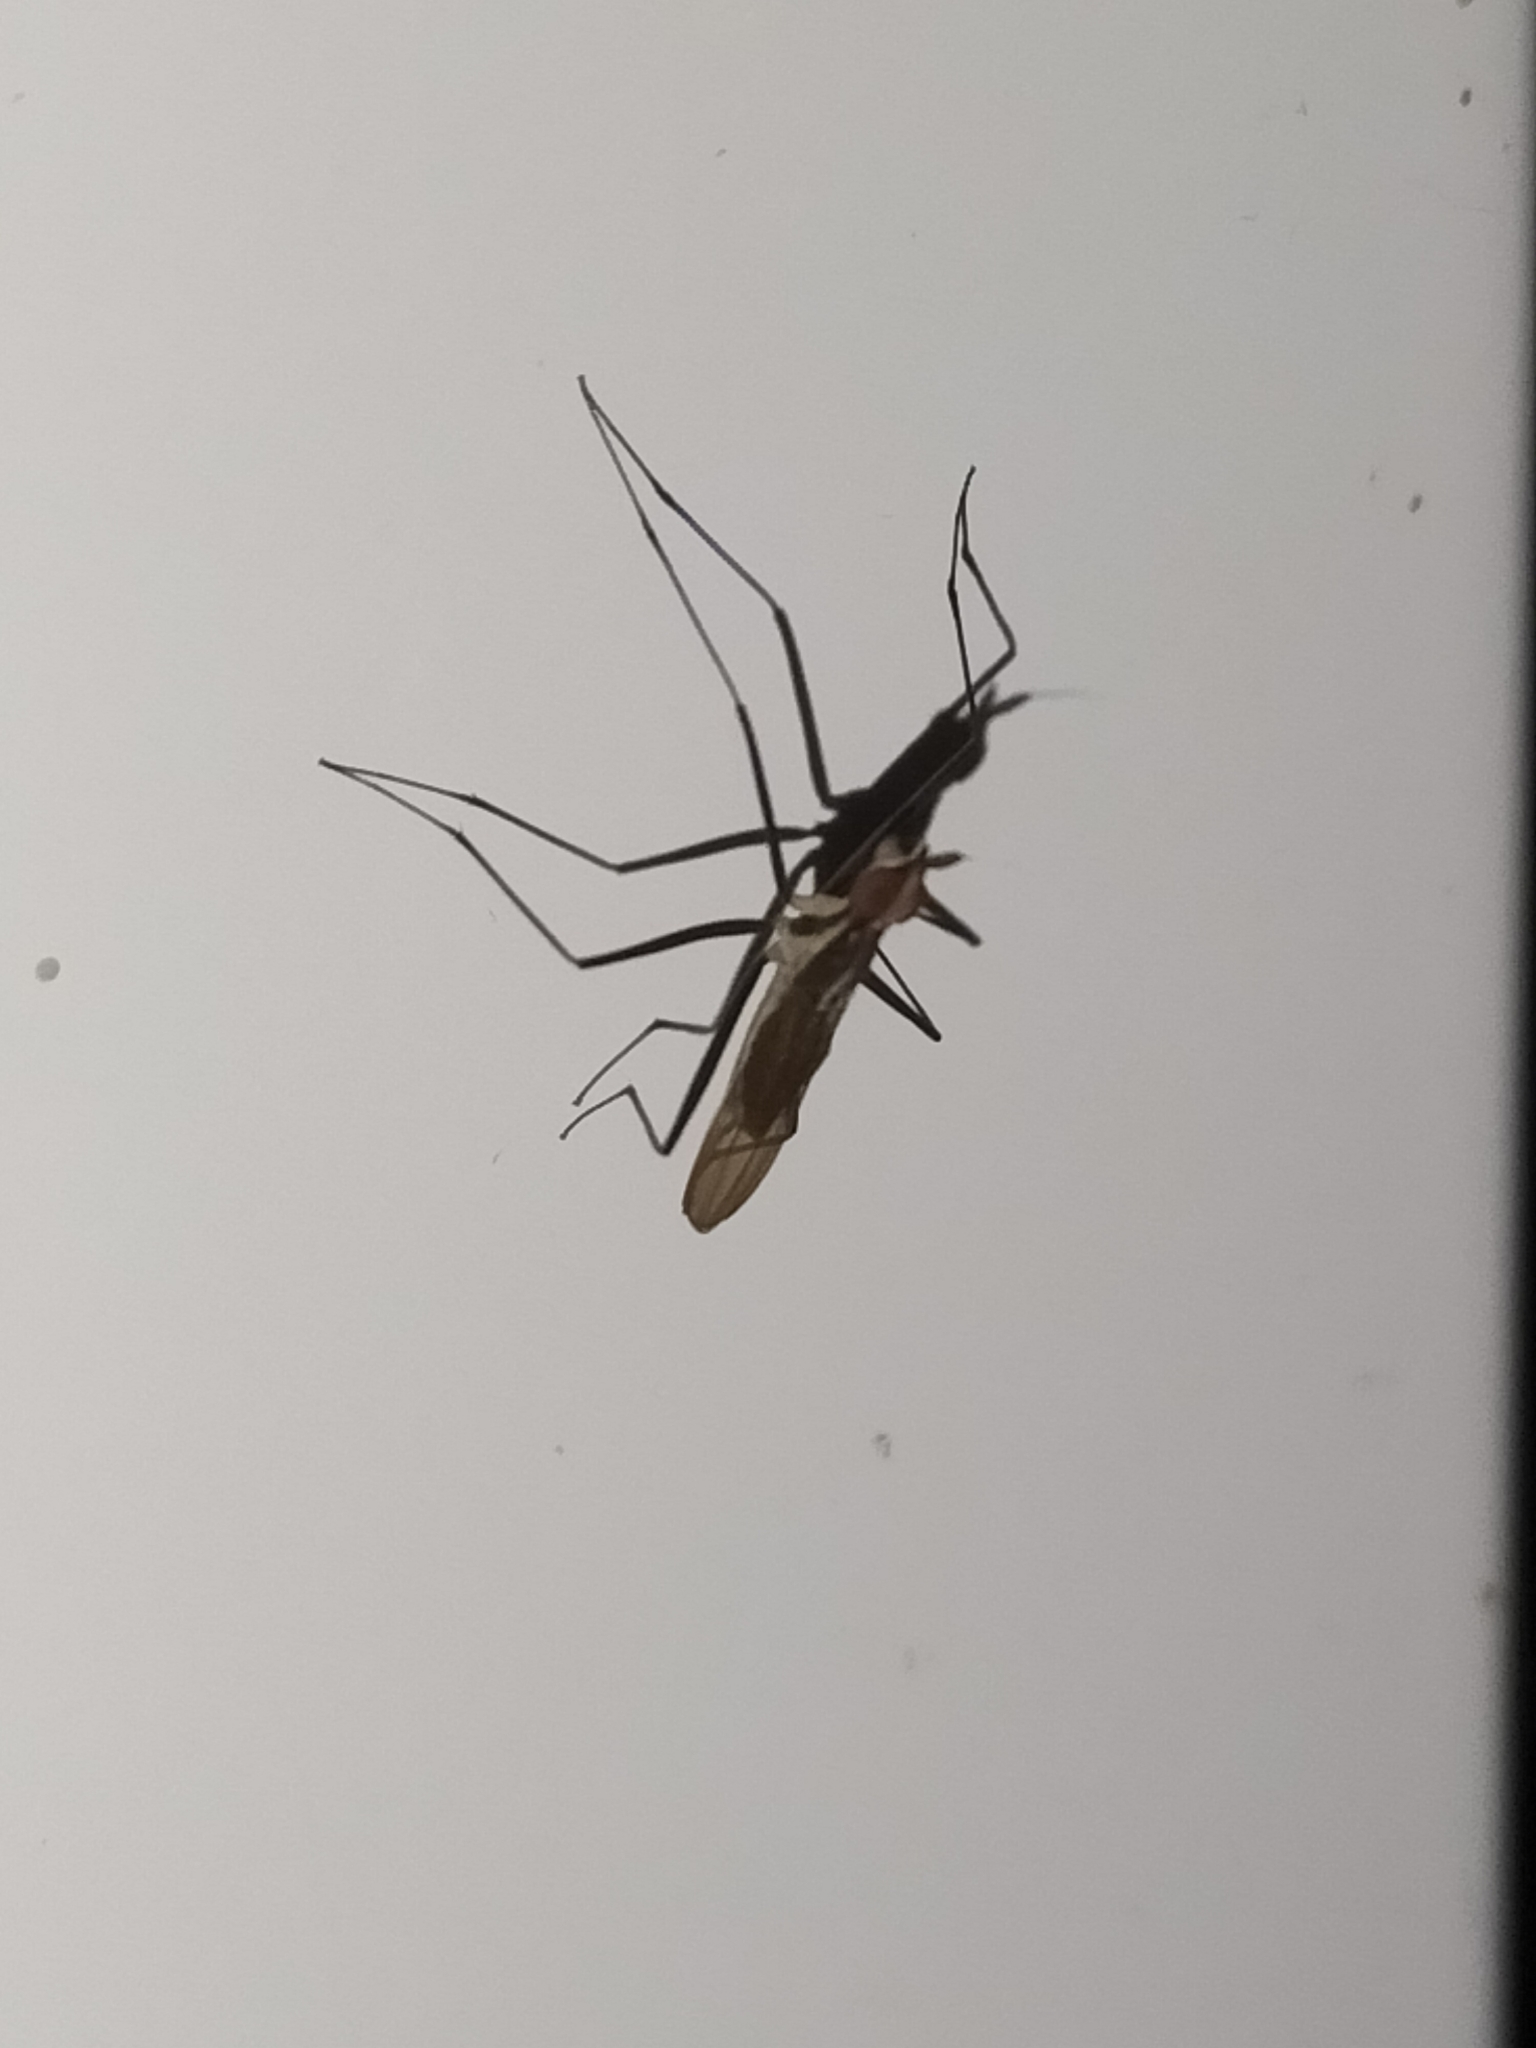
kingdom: Animalia
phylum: Arthropoda
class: Insecta
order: Diptera
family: Neriidae
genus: Telostylinus
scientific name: Telostylinus lineolatus
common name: Banana stalk fly
